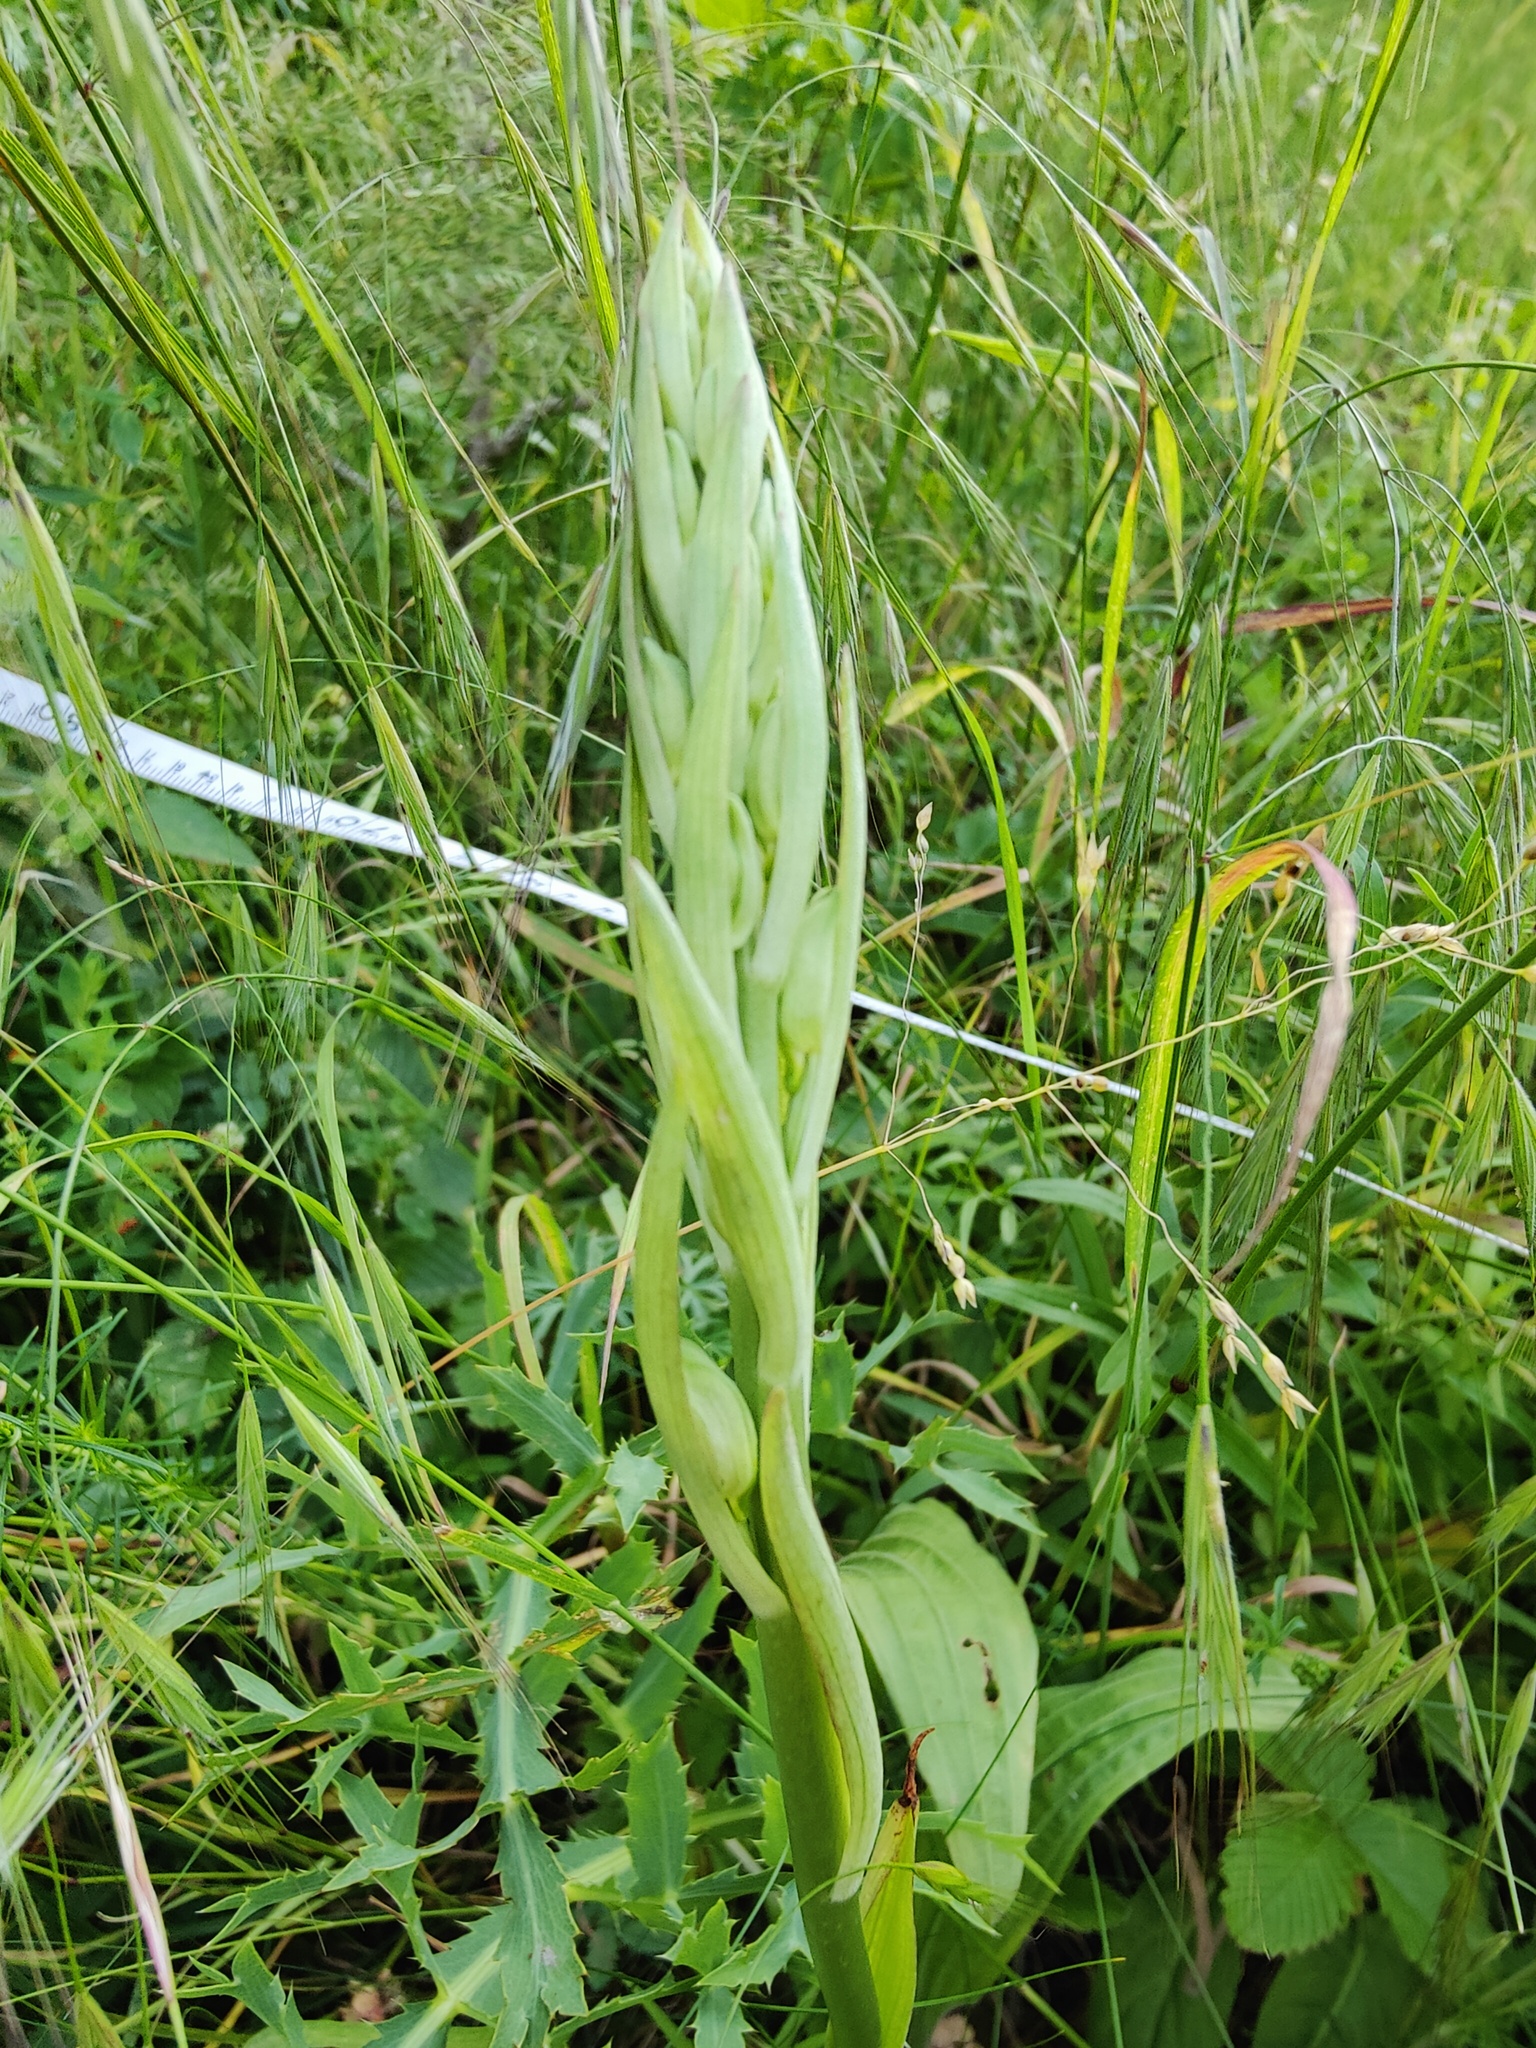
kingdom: Plantae
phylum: Tracheophyta
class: Liliopsida
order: Asparagales
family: Orchidaceae
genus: Himantoglossum
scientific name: Himantoglossum caprinum
